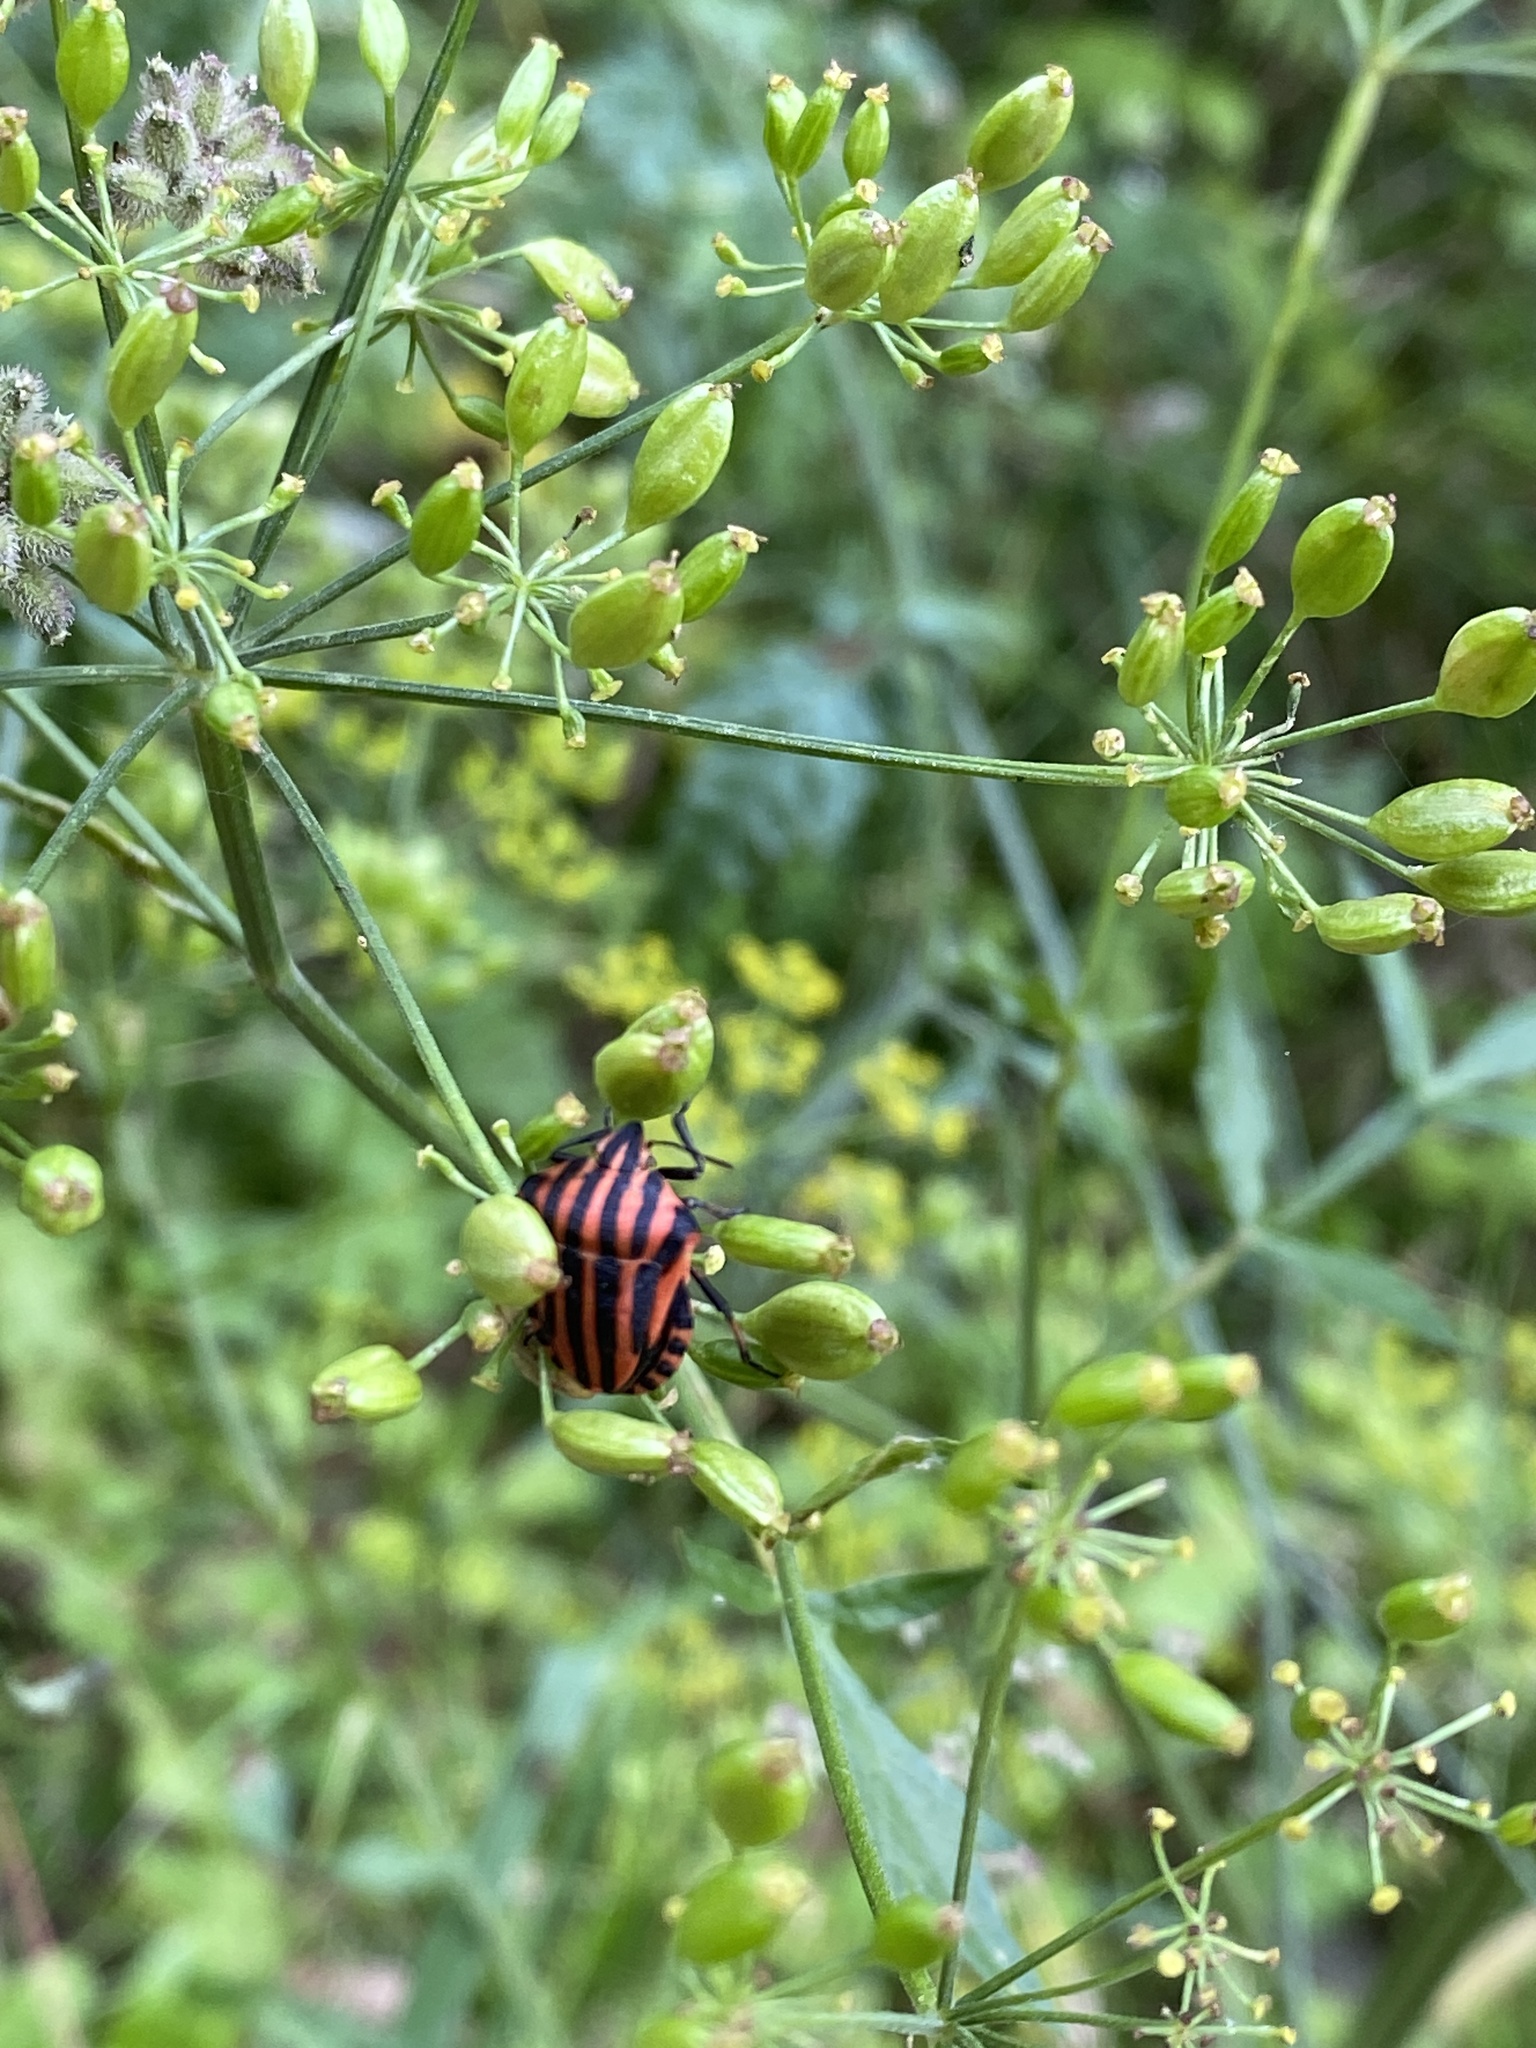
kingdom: Animalia
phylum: Arthropoda
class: Insecta
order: Hemiptera
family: Pentatomidae
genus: Graphosoma
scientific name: Graphosoma italicum
